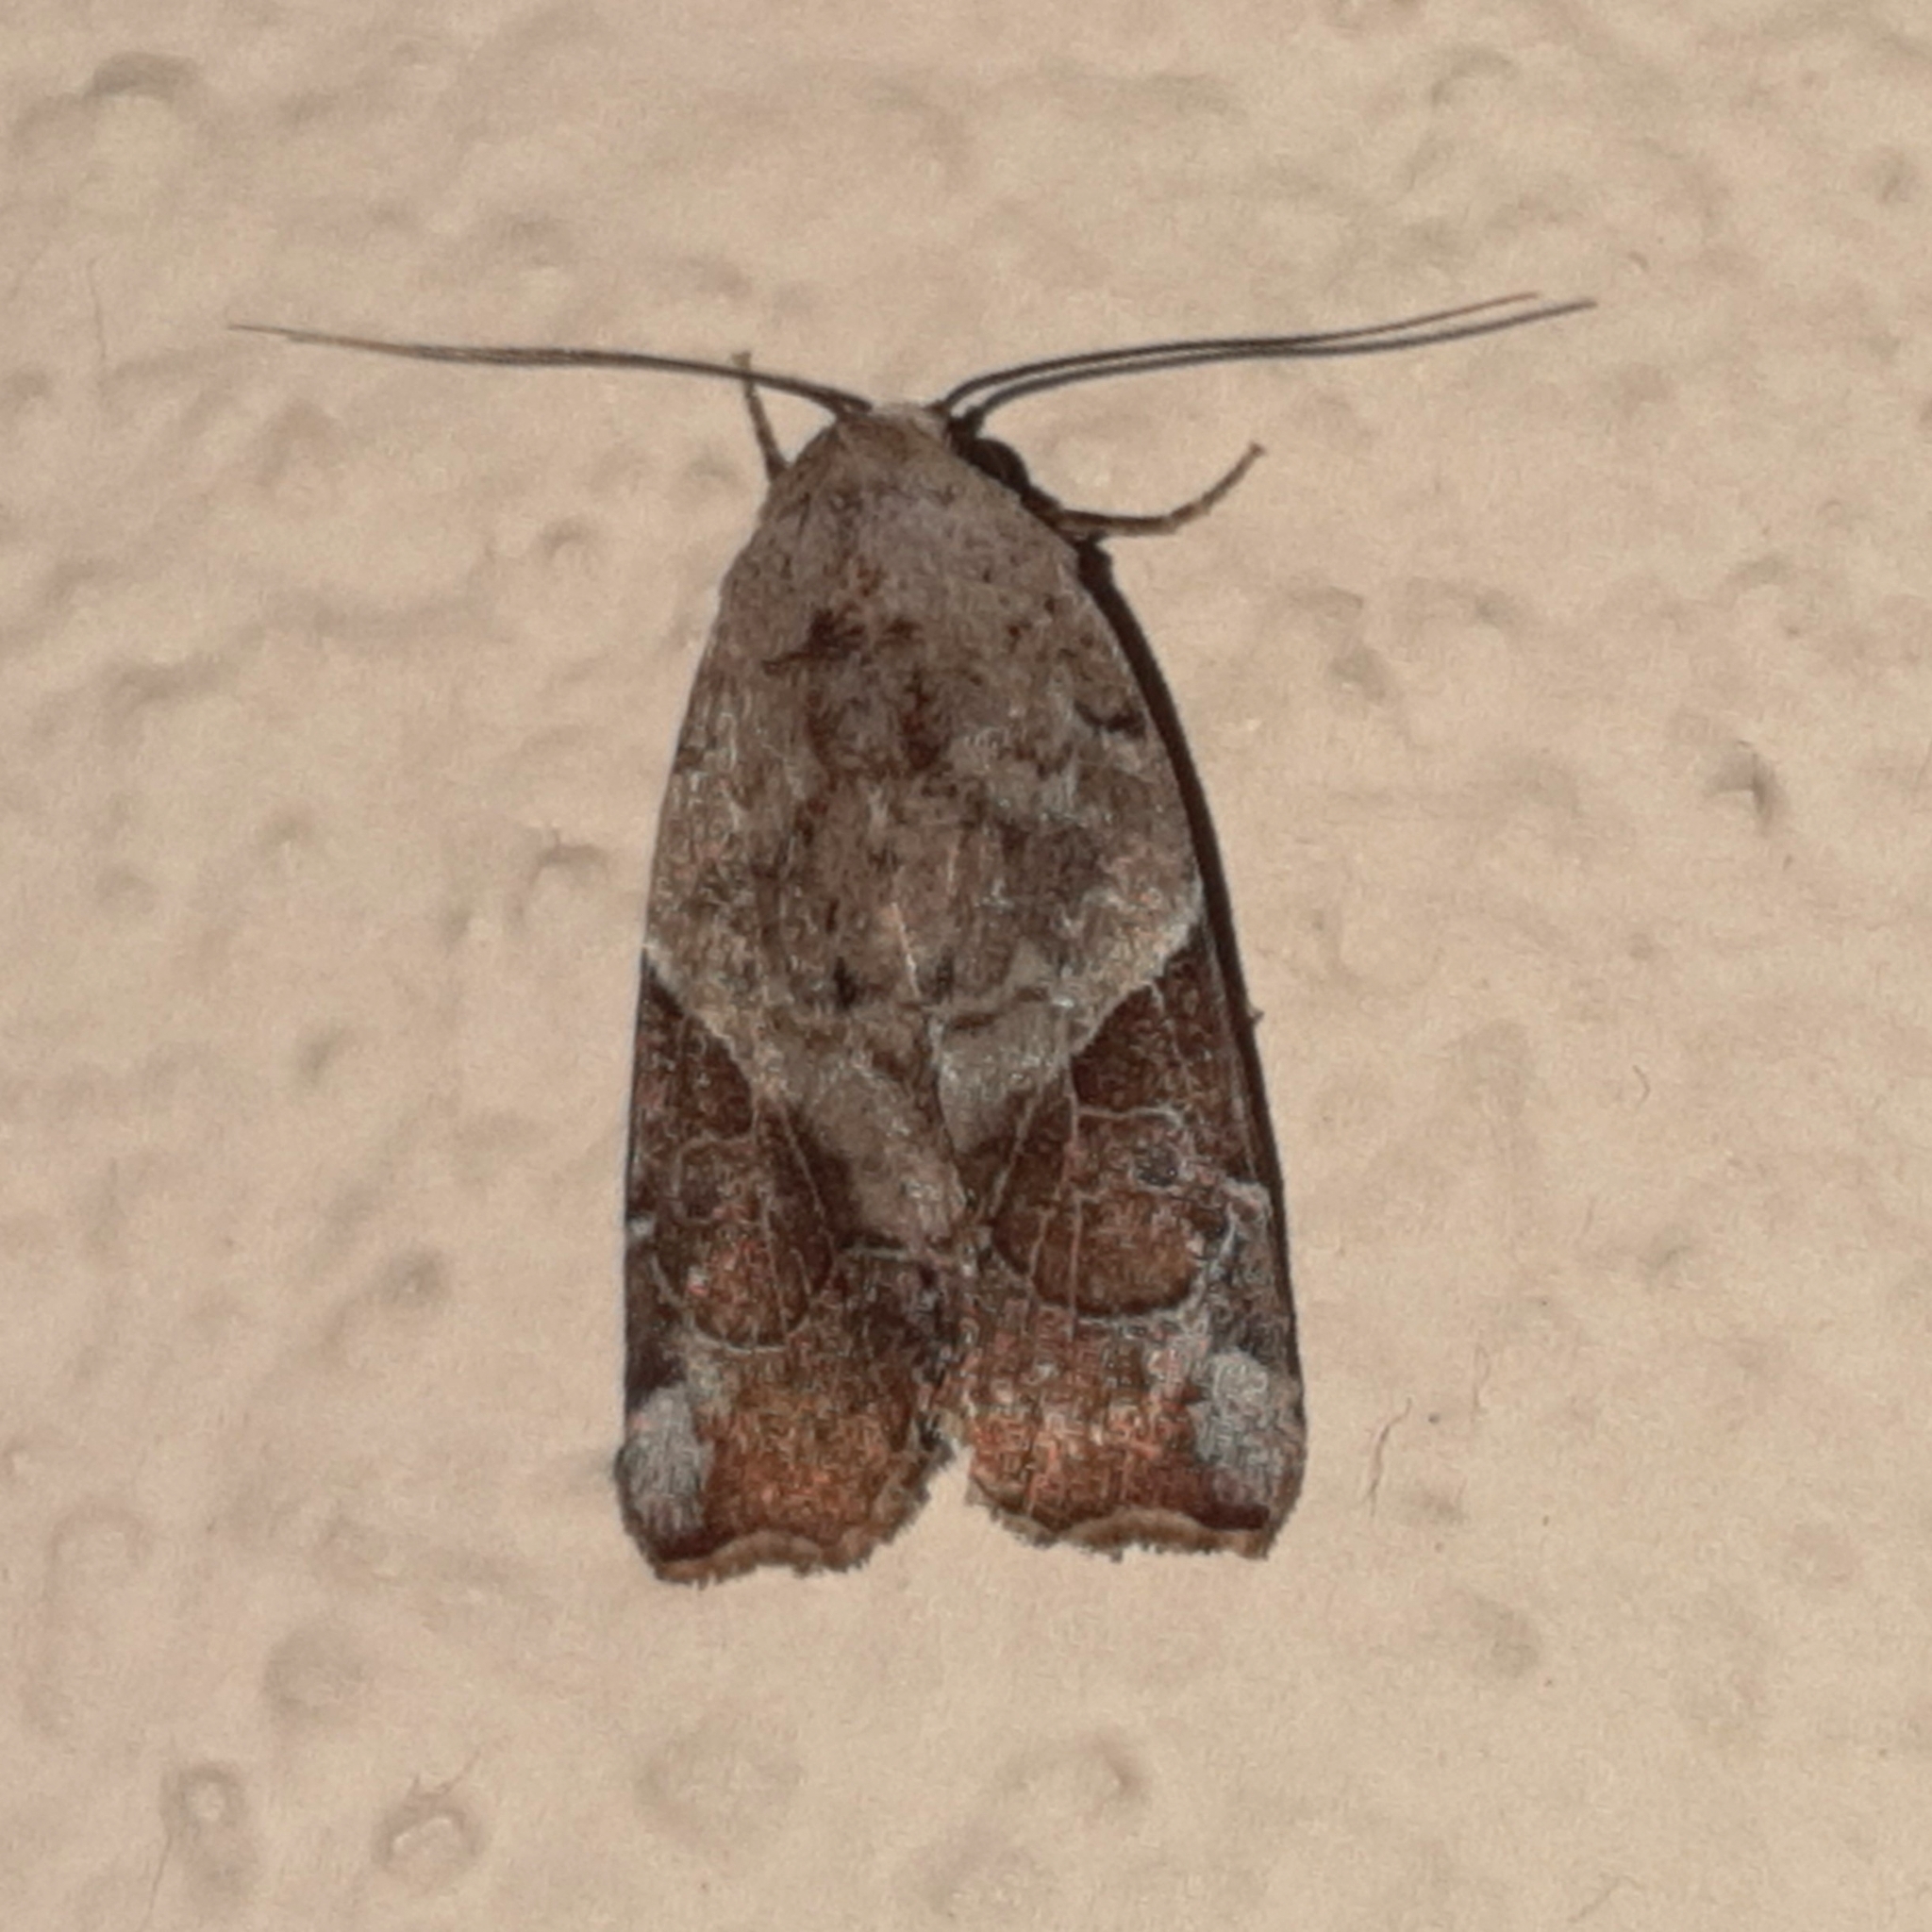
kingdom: Animalia
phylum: Arthropoda
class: Insecta
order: Lepidoptera
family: Noctuidae
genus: Gonodes
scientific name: Gonodes liquida
